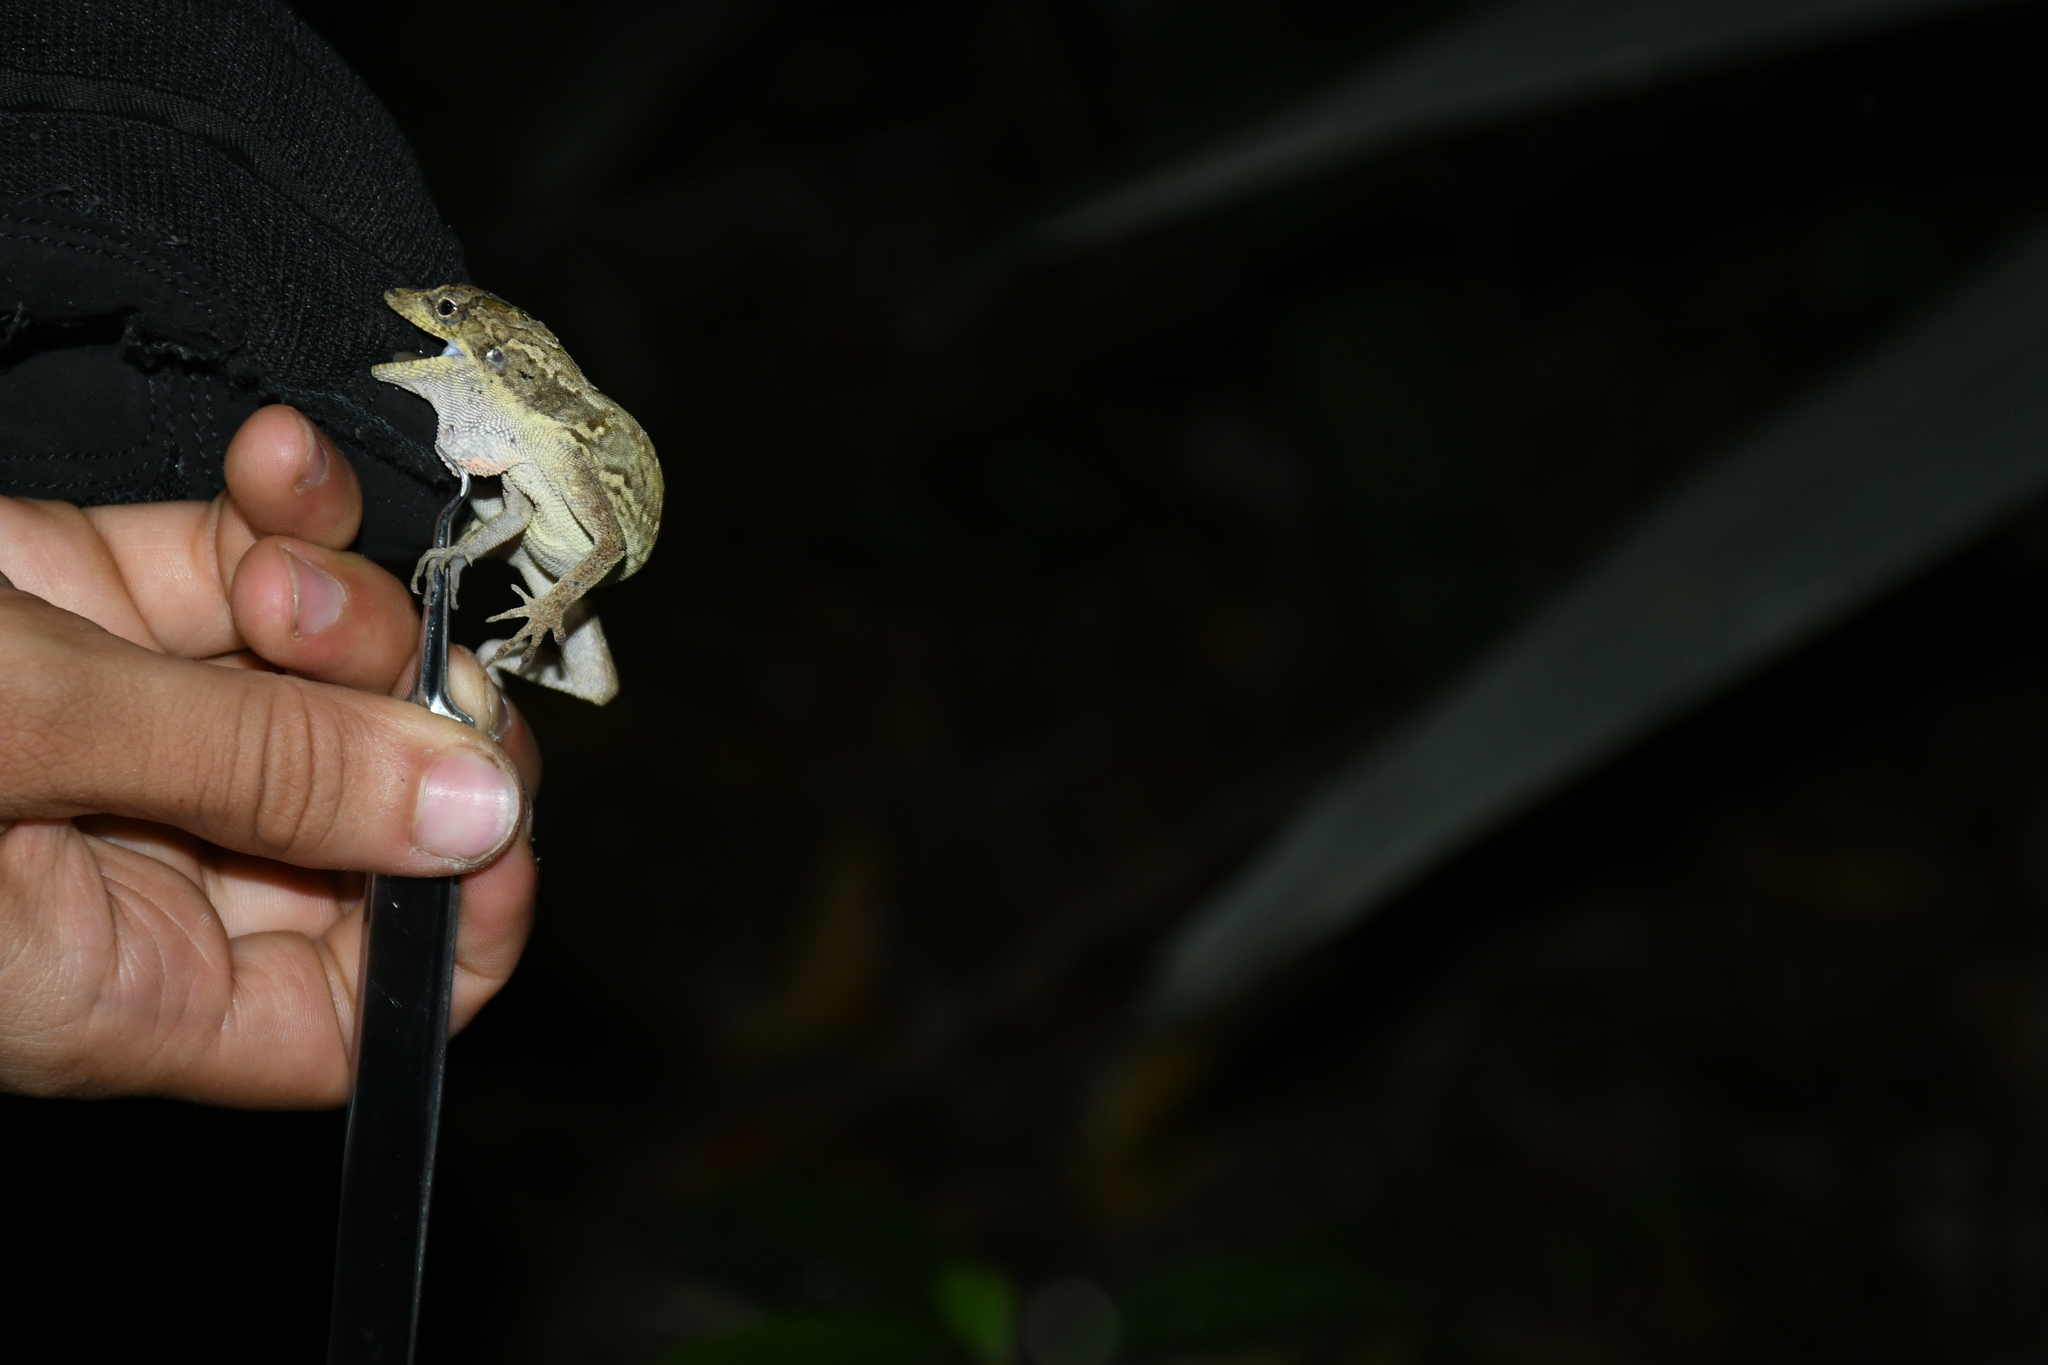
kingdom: Animalia
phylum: Chordata
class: Squamata
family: Dactyloidae
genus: Anolis
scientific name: Anolis lemurinus
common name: Ghost anole
